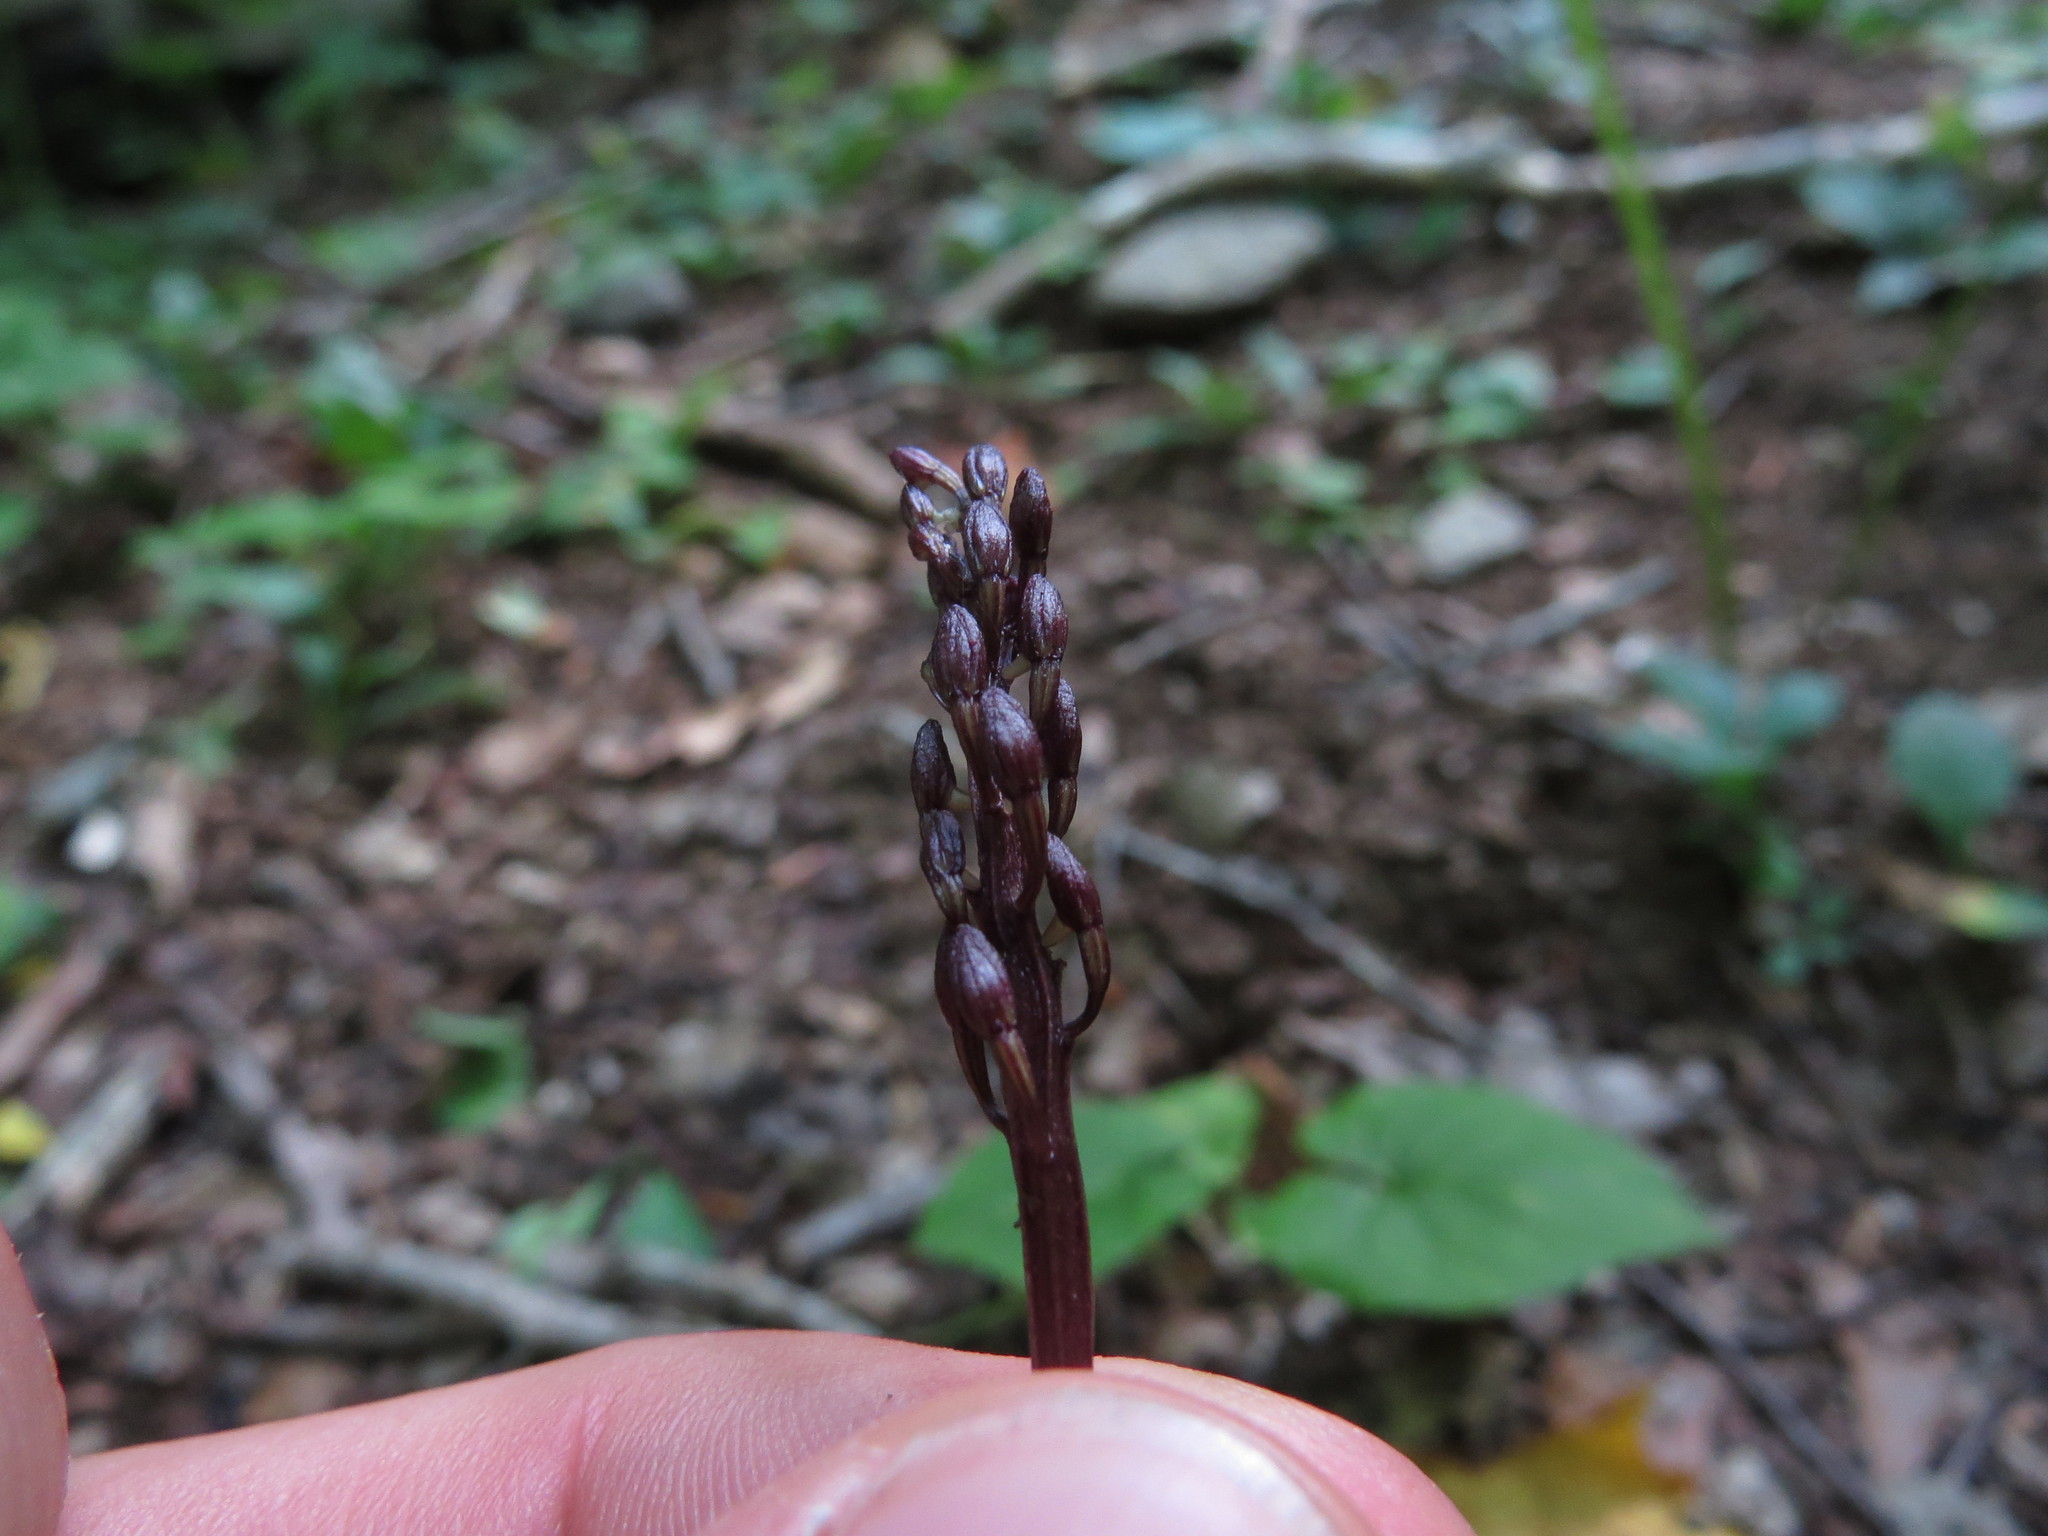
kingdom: Plantae
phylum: Tracheophyta
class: Liliopsida
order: Asparagales
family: Orchidaceae
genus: Tipularia
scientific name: Tipularia discolor
